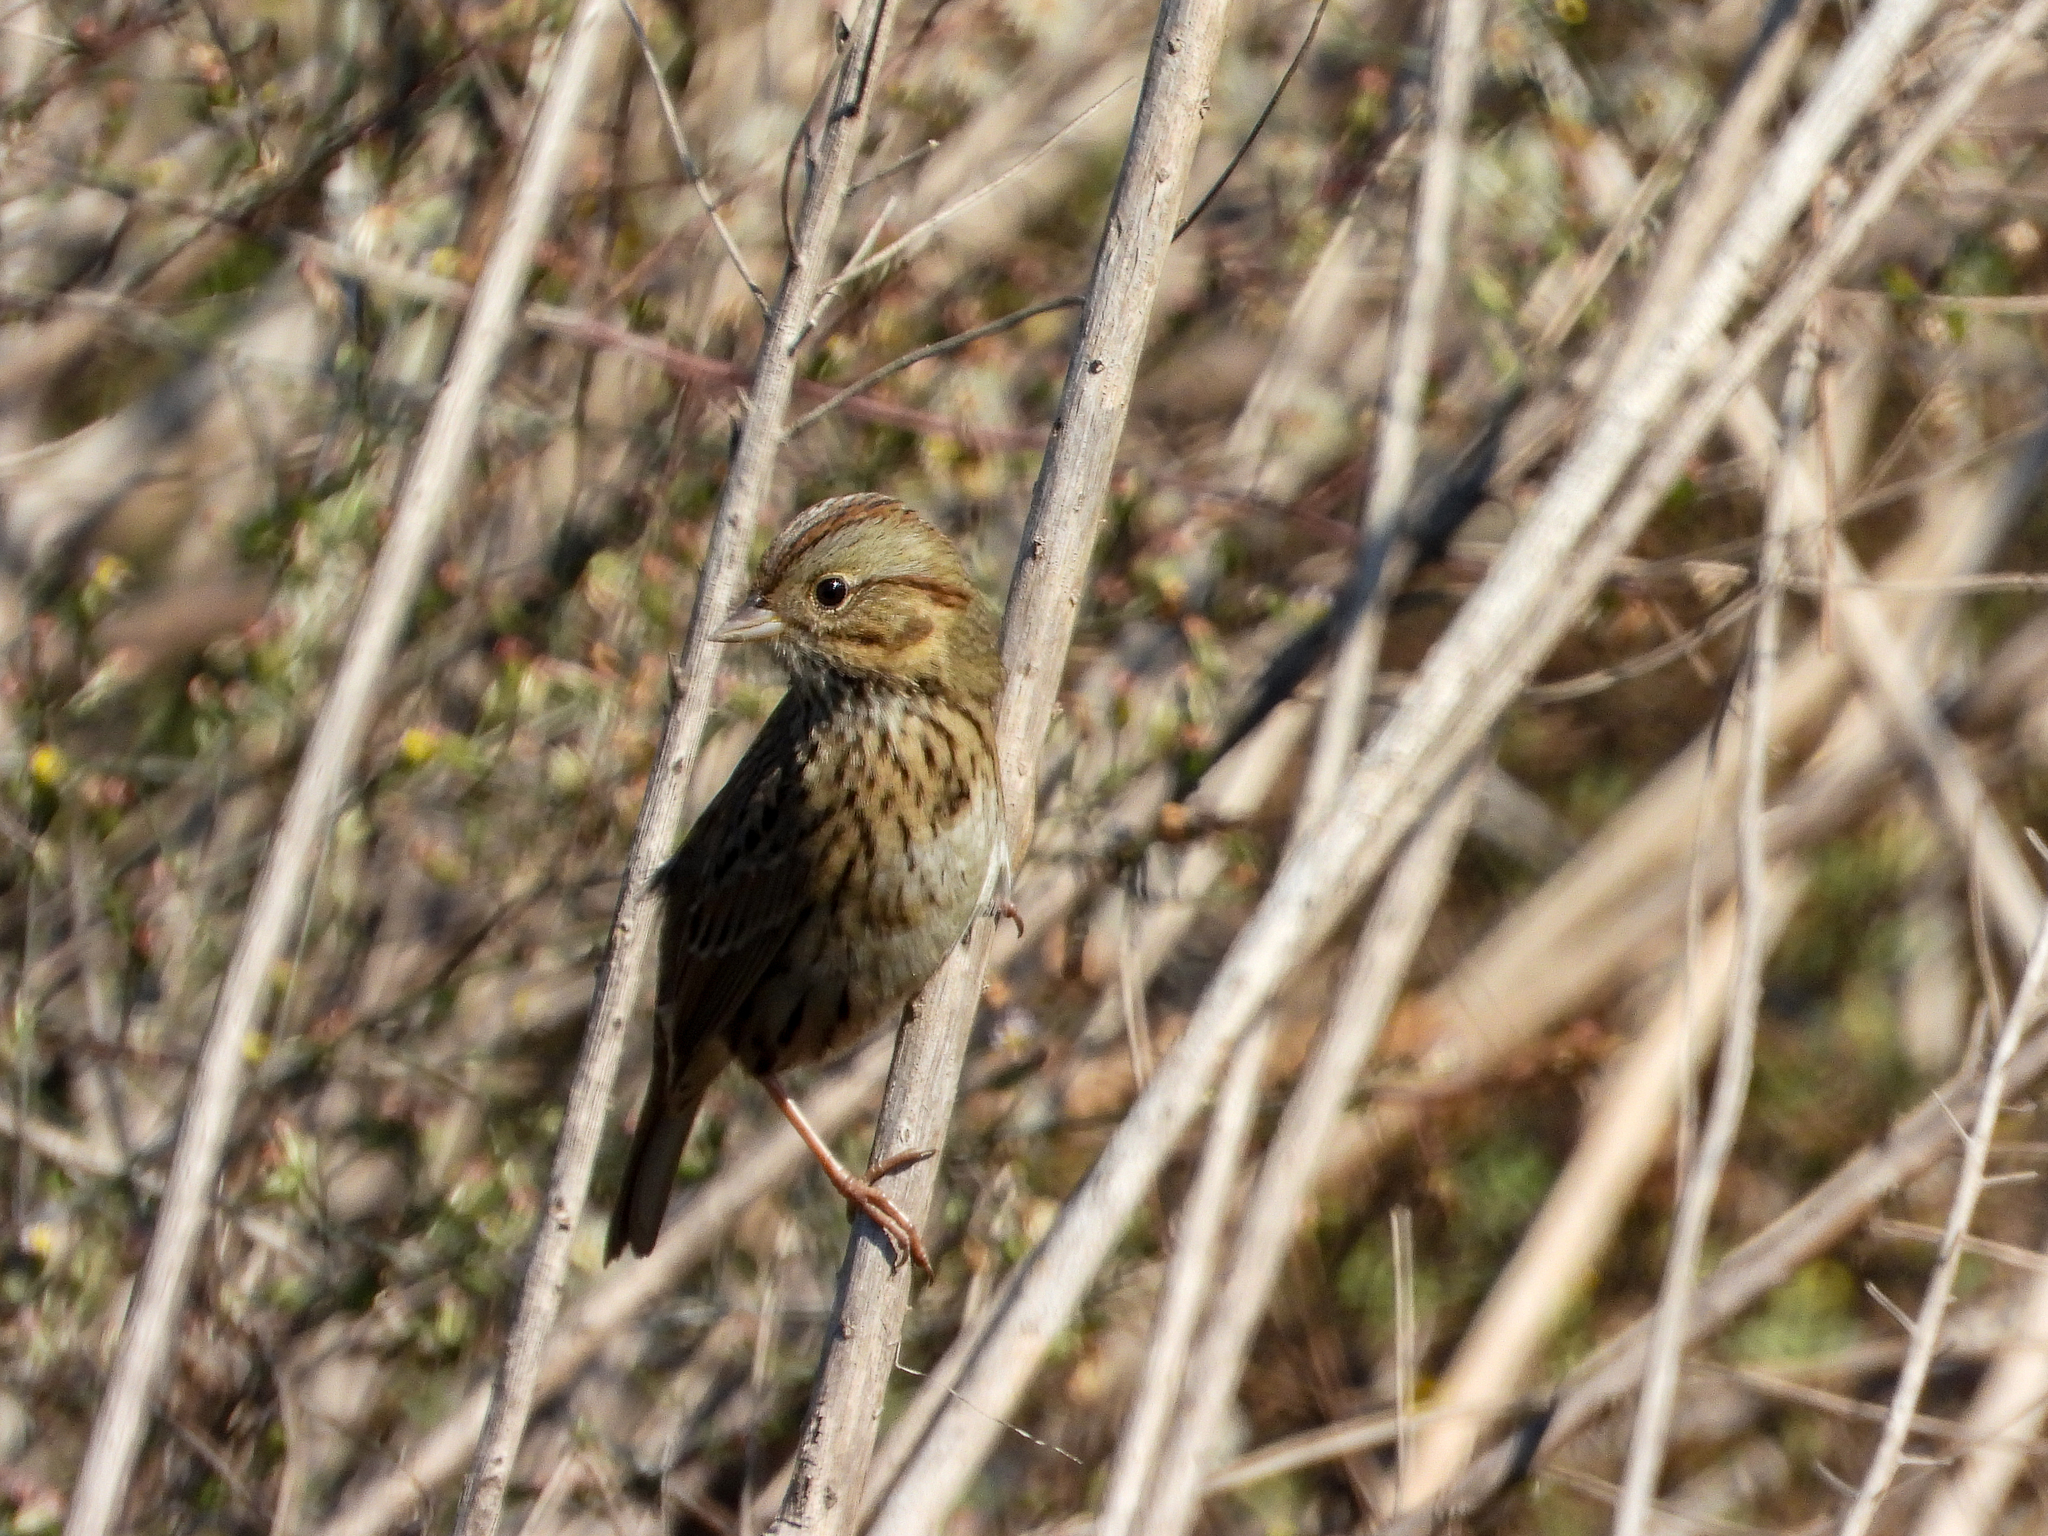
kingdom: Animalia
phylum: Chordata
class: Aves
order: Passeriformes
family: Passerellidae
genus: Melospiza
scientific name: Melospiza lincolnii
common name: Lincoln's sparrow
